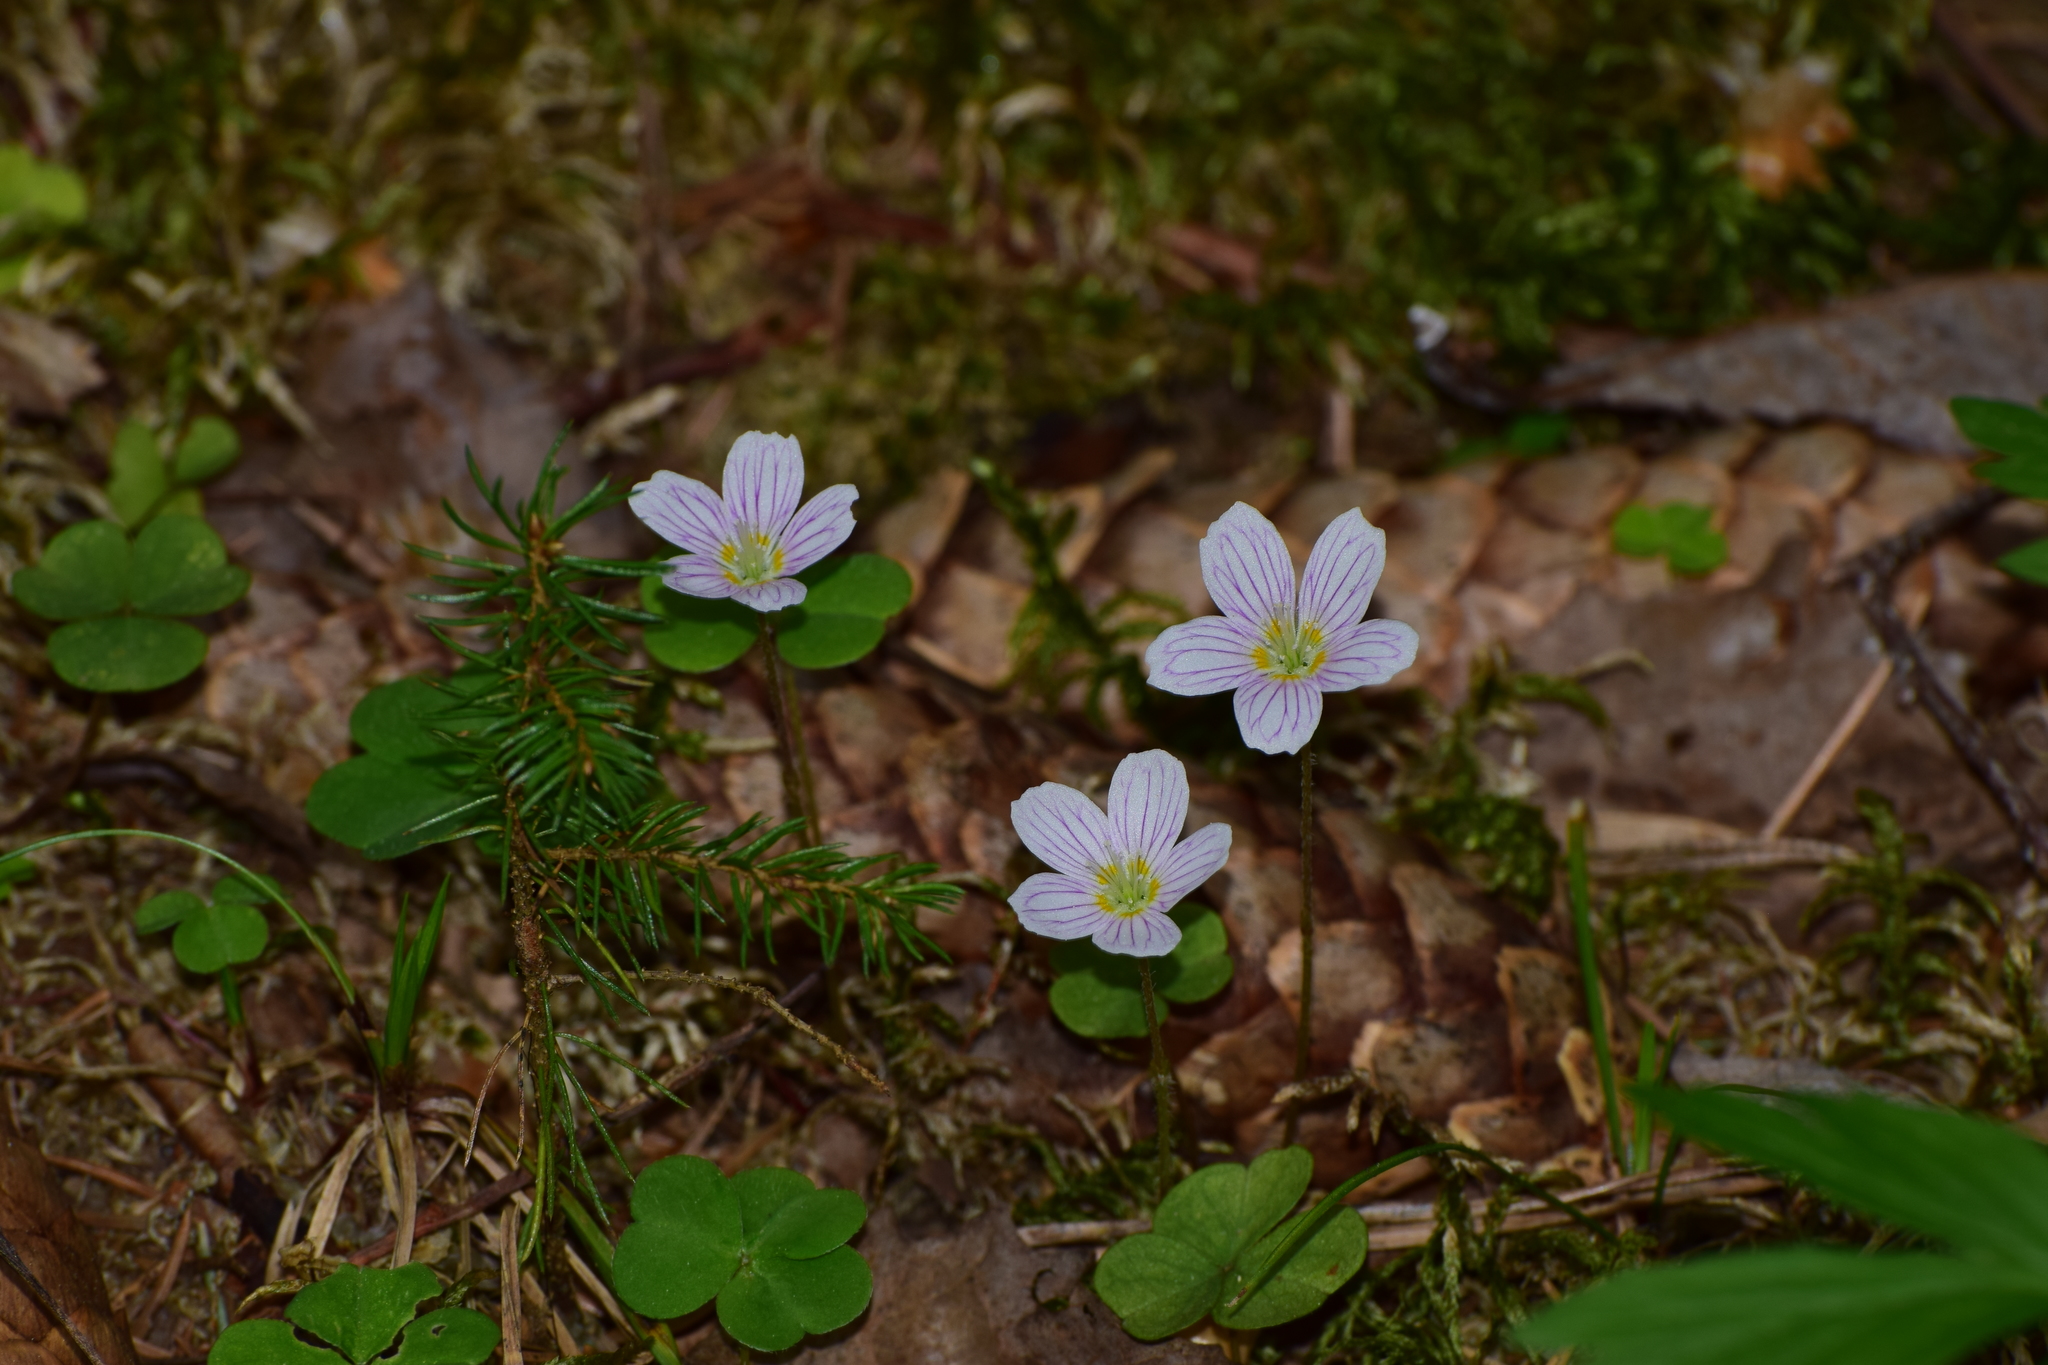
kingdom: Plantae
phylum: Tracheophyta
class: Magnoliopsida
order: Oxalidales
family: Oxalidaceae
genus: Oxalis
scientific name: Oxalis acetosella
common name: Wood-sorrel
